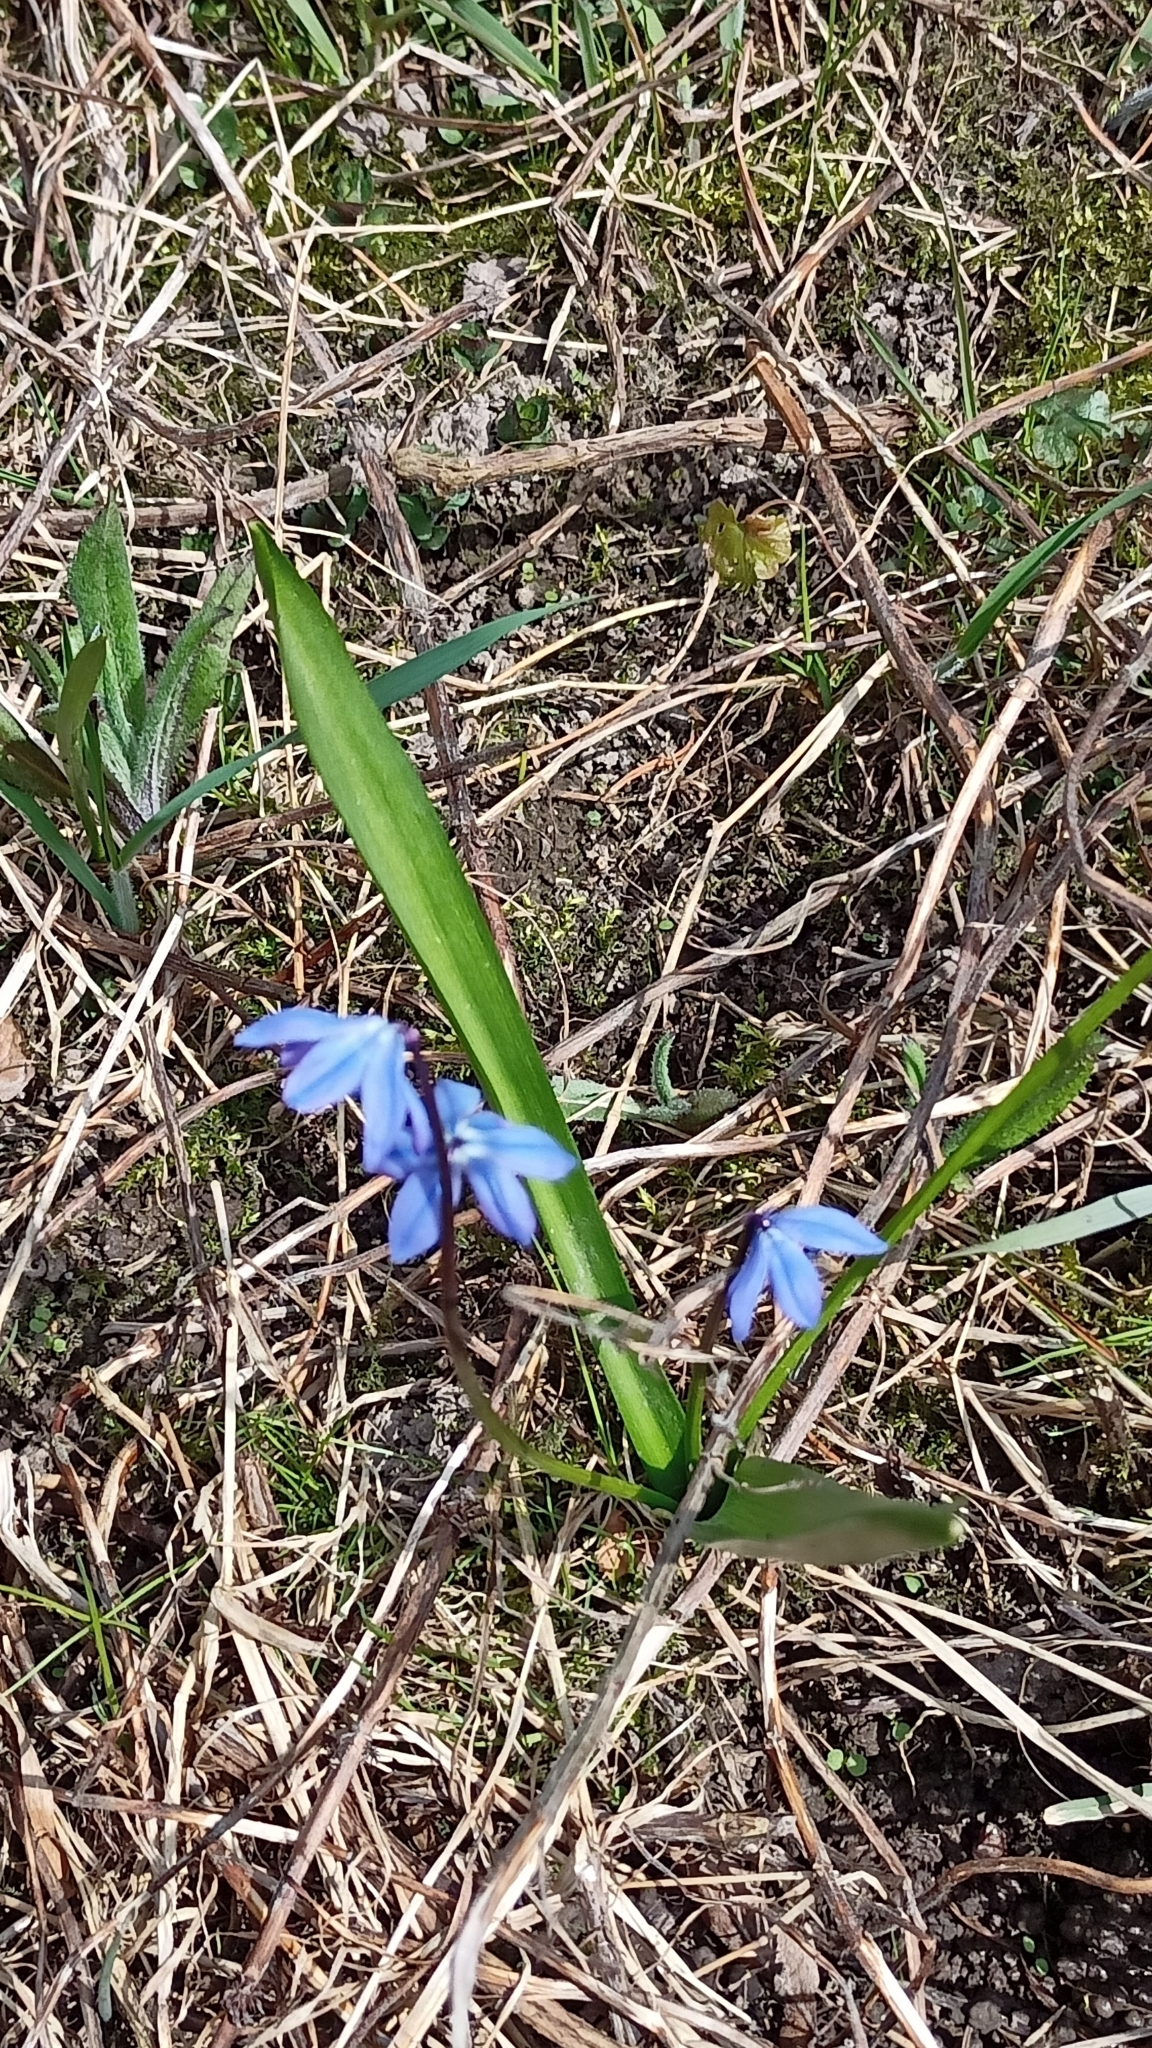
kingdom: Plantae
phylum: Tracheophyta
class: Liliopsida
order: Asparagales
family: Asparagaceae
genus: Scilla
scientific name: Scilla siberica
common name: Siberian squill
